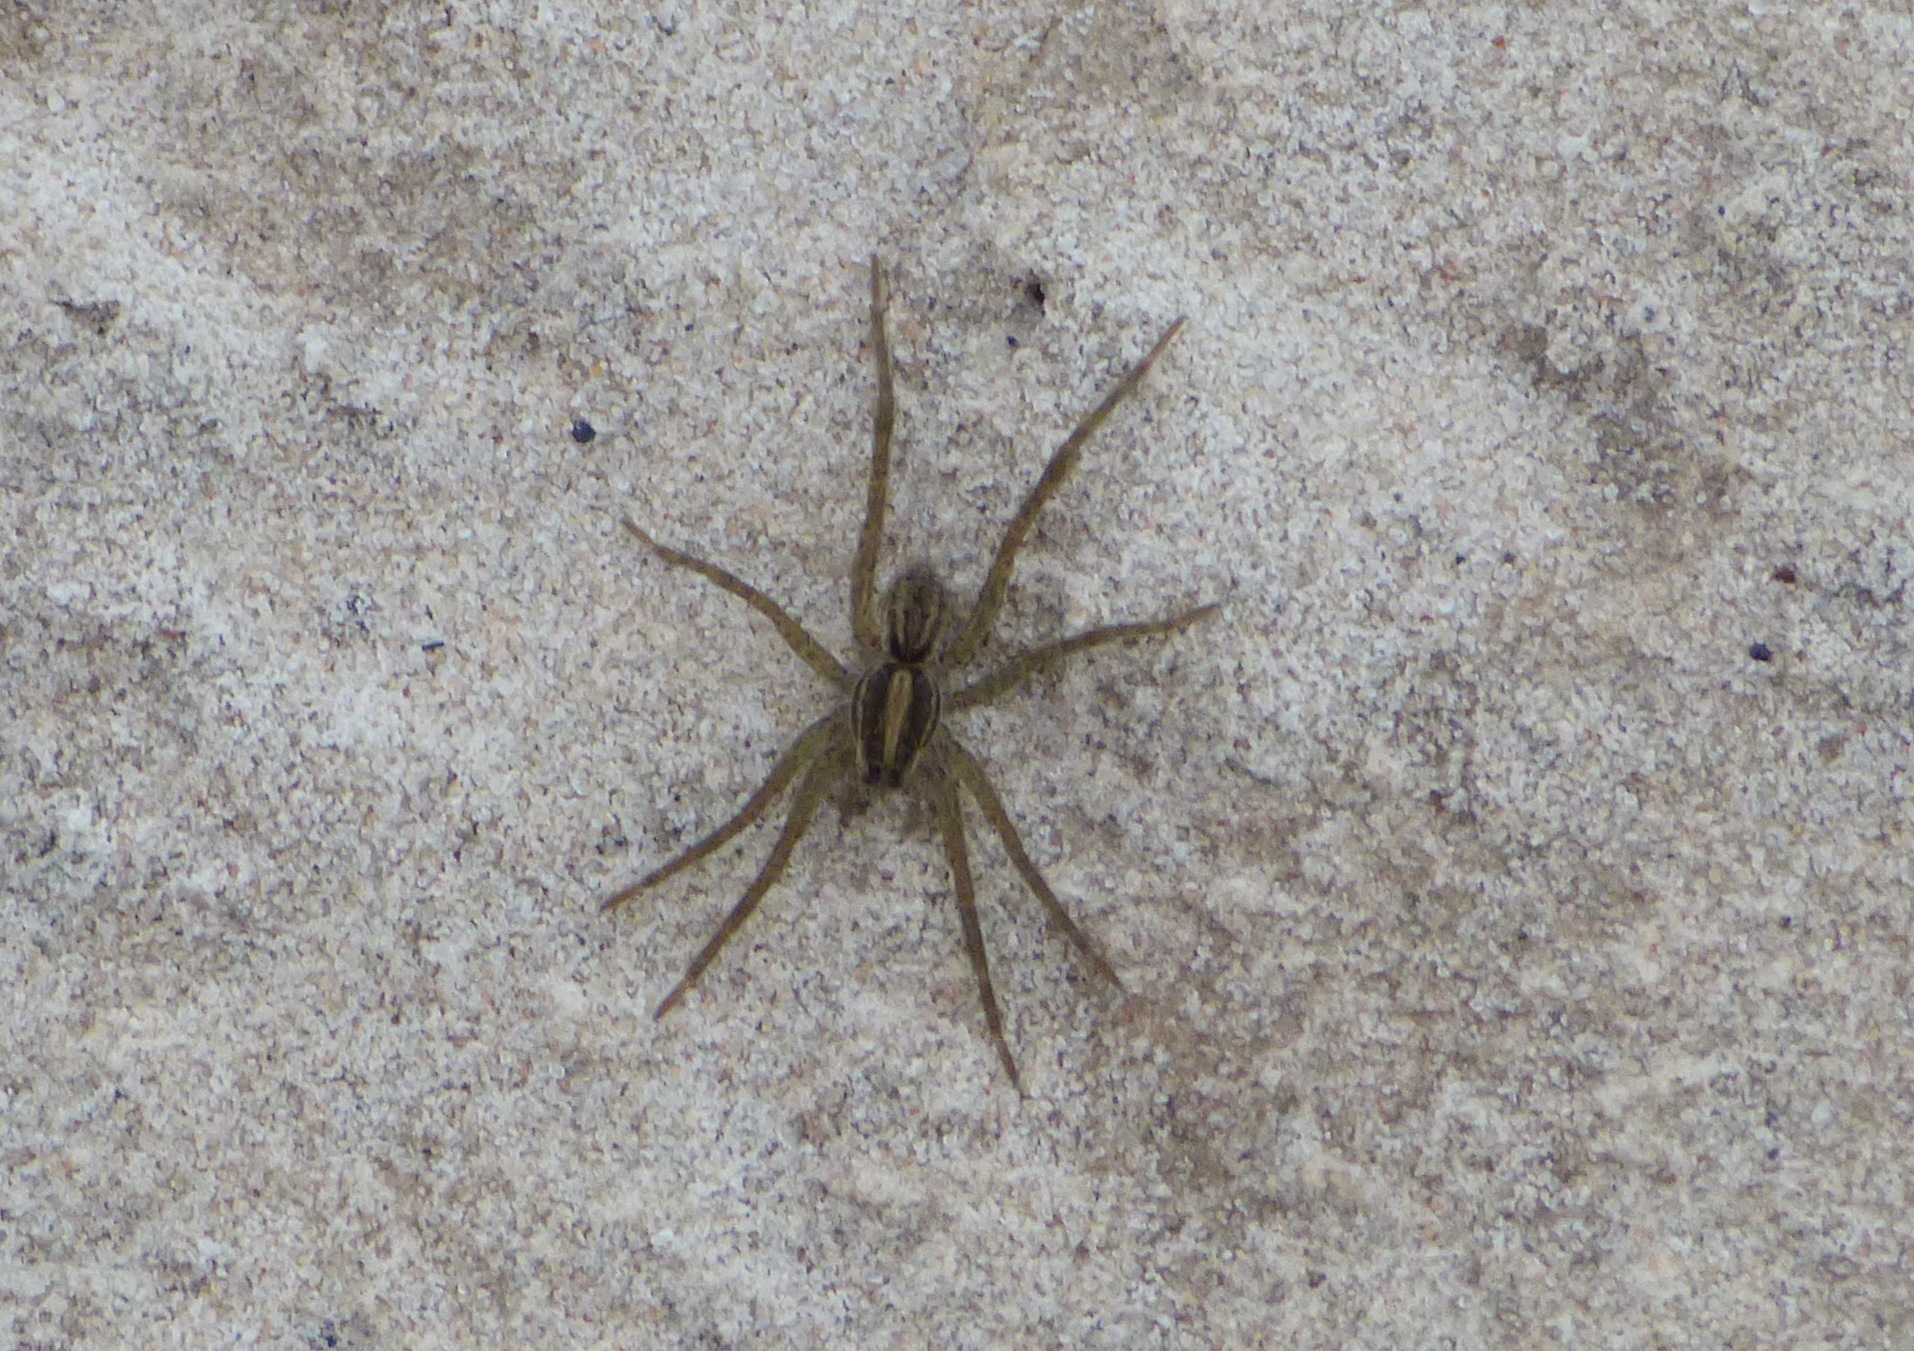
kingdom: Animalia
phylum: Arthropoda
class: Arachnida
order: Araneae
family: Lycosidae
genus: Alopecosa
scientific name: Alopecosa moesta
